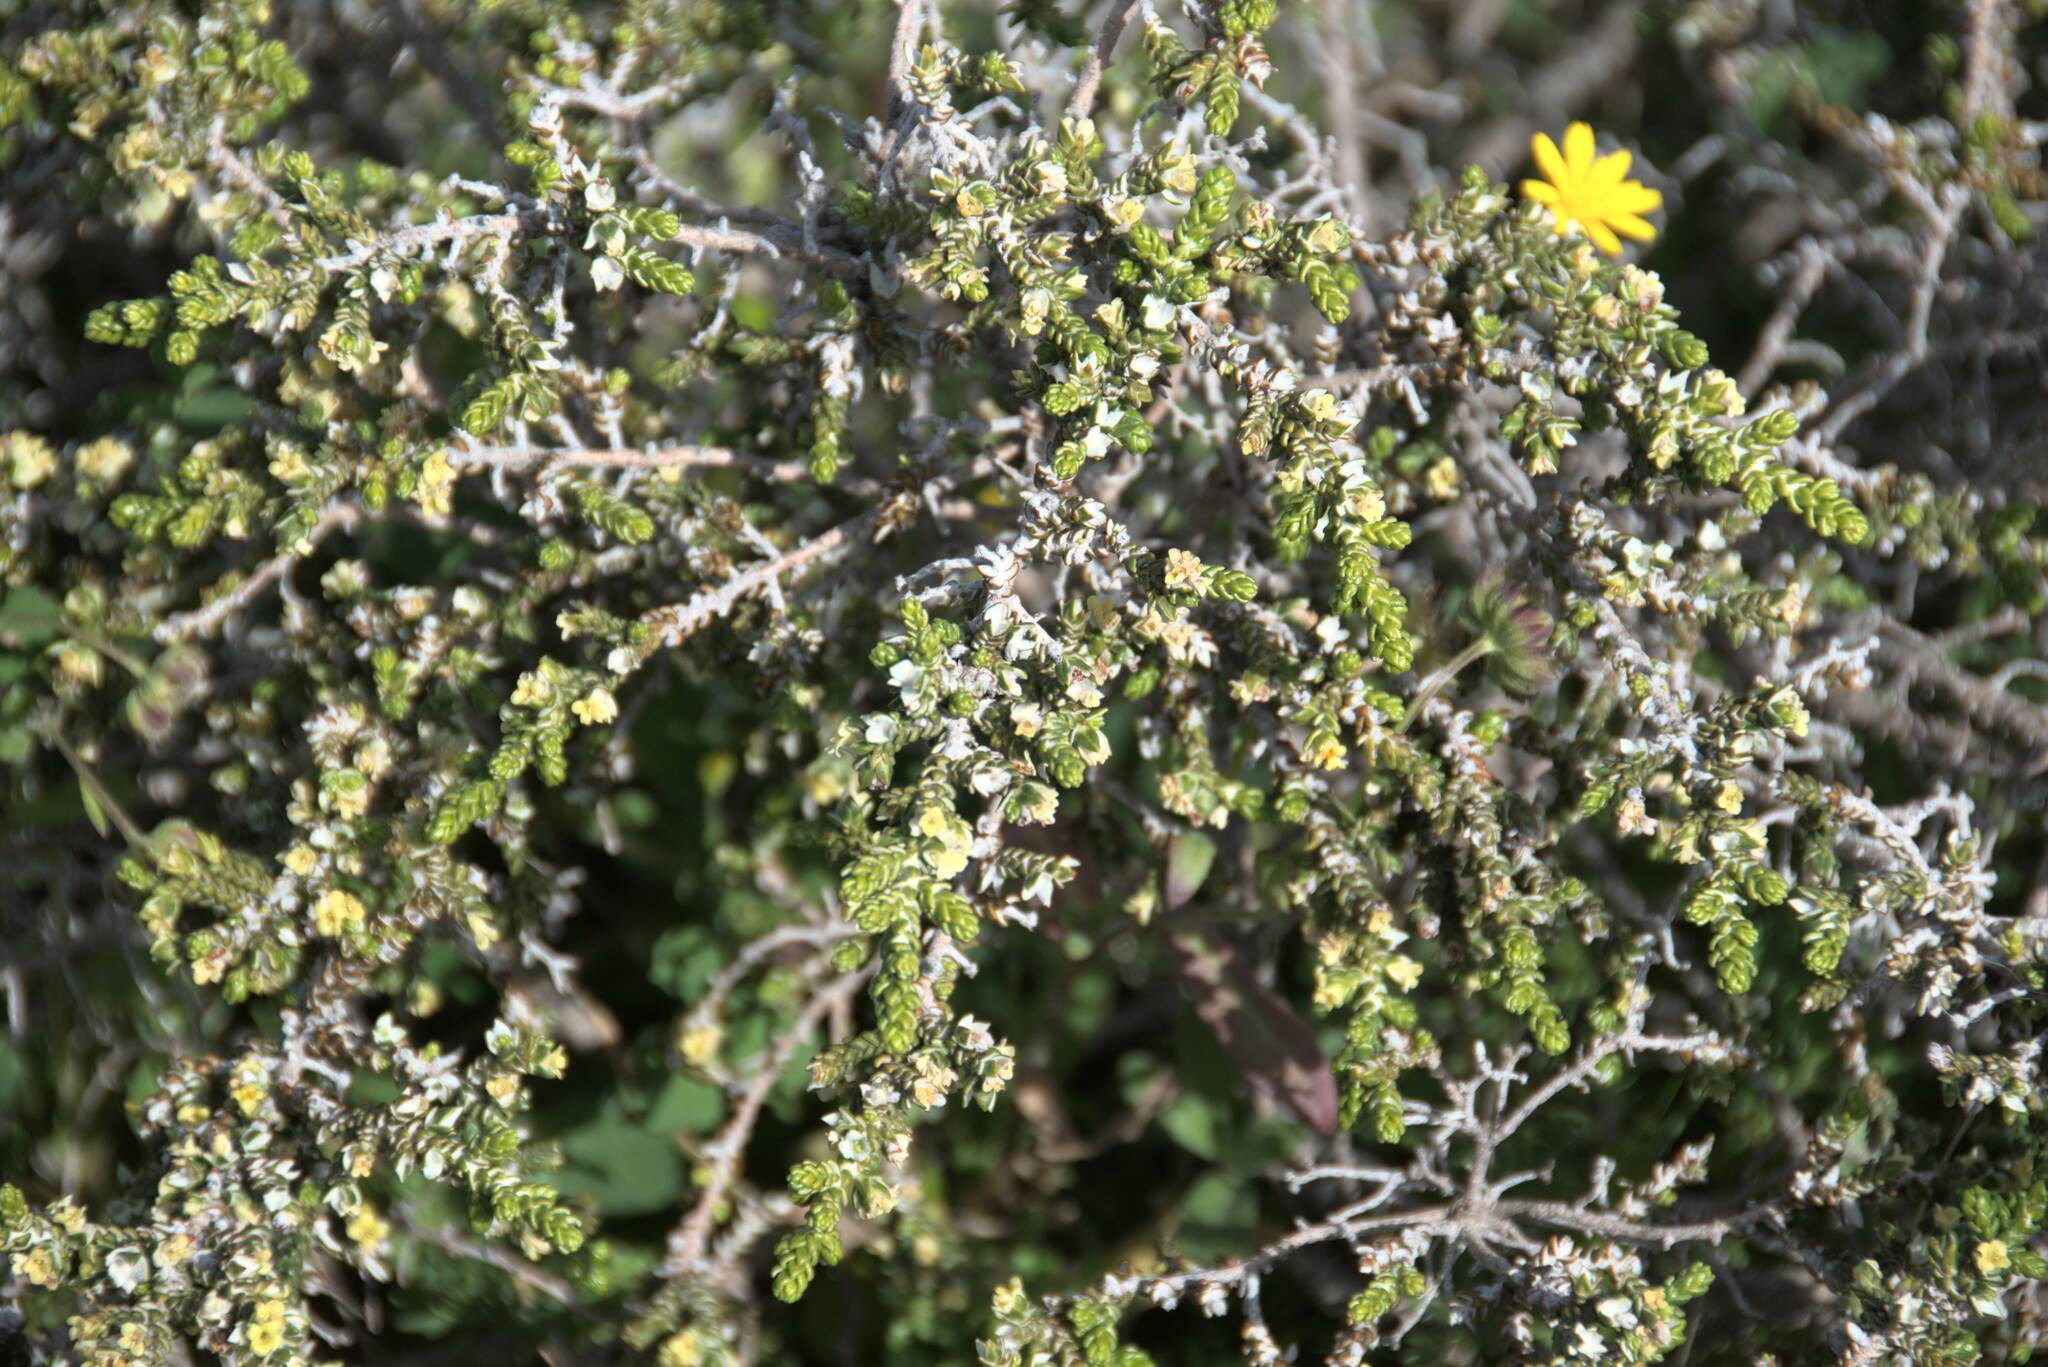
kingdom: Plantae
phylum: Tracheophyta
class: Magnoliopsida
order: Malvales
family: Thymelaeaceae
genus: Thymelaea
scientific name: Thymelaea hirsuta
